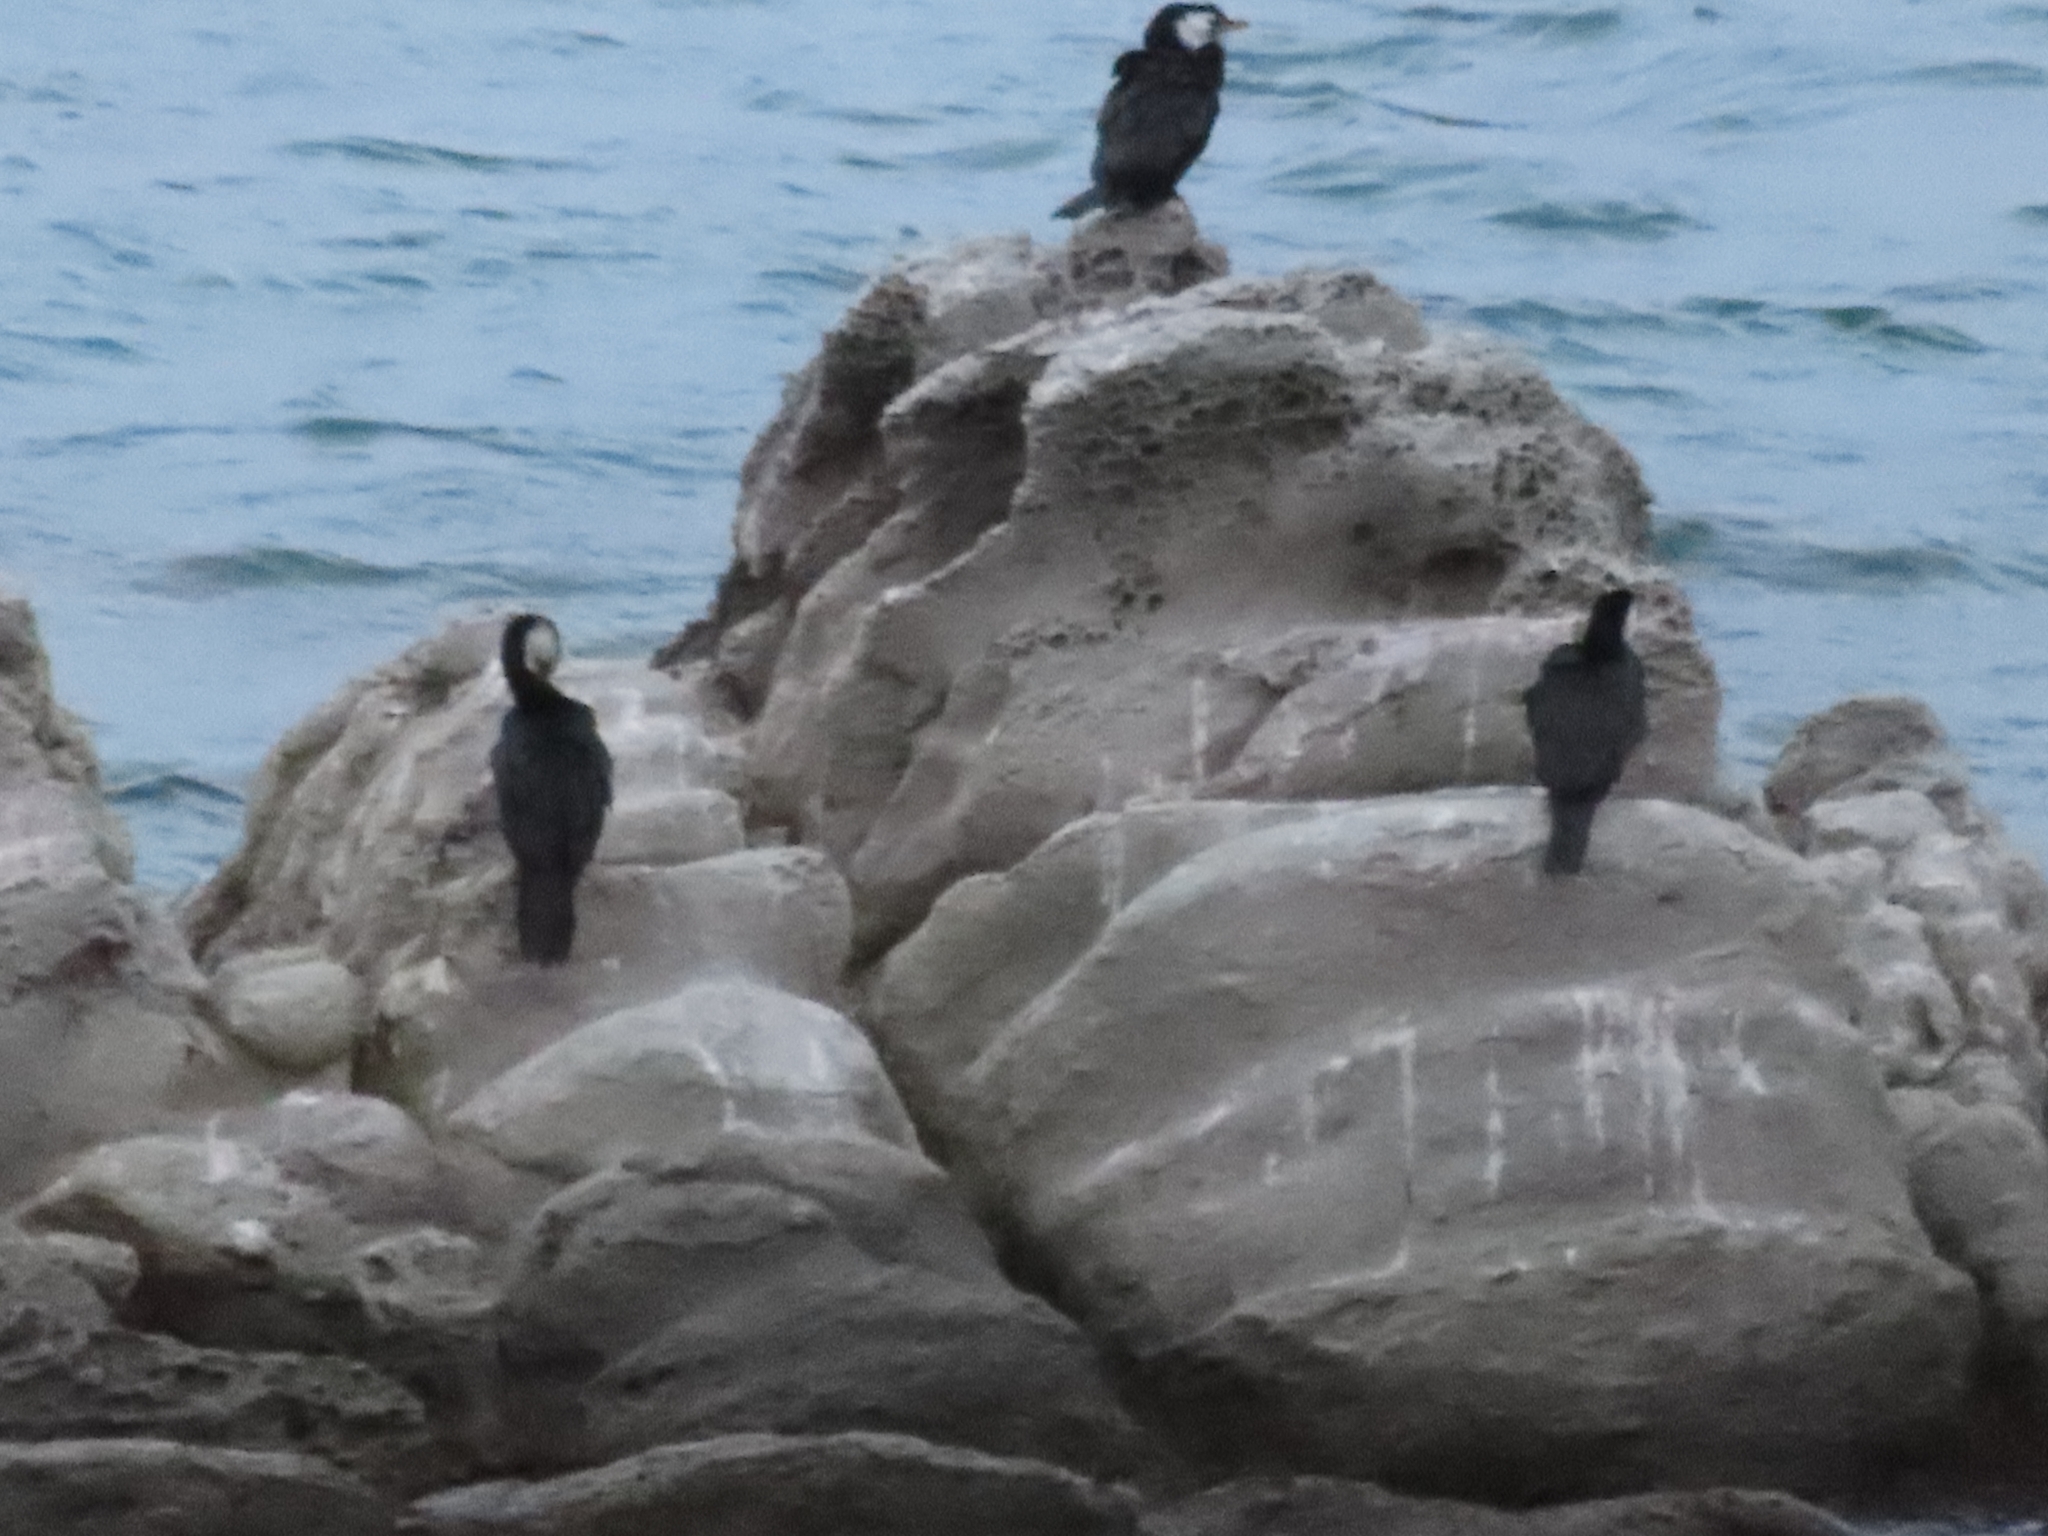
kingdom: Animalia
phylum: Chordata
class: Aves
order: Suliformes
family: Phalacrocoracidae
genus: Microcarbo
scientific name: Microcarbo melanoleucos
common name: Little pied cormorant
